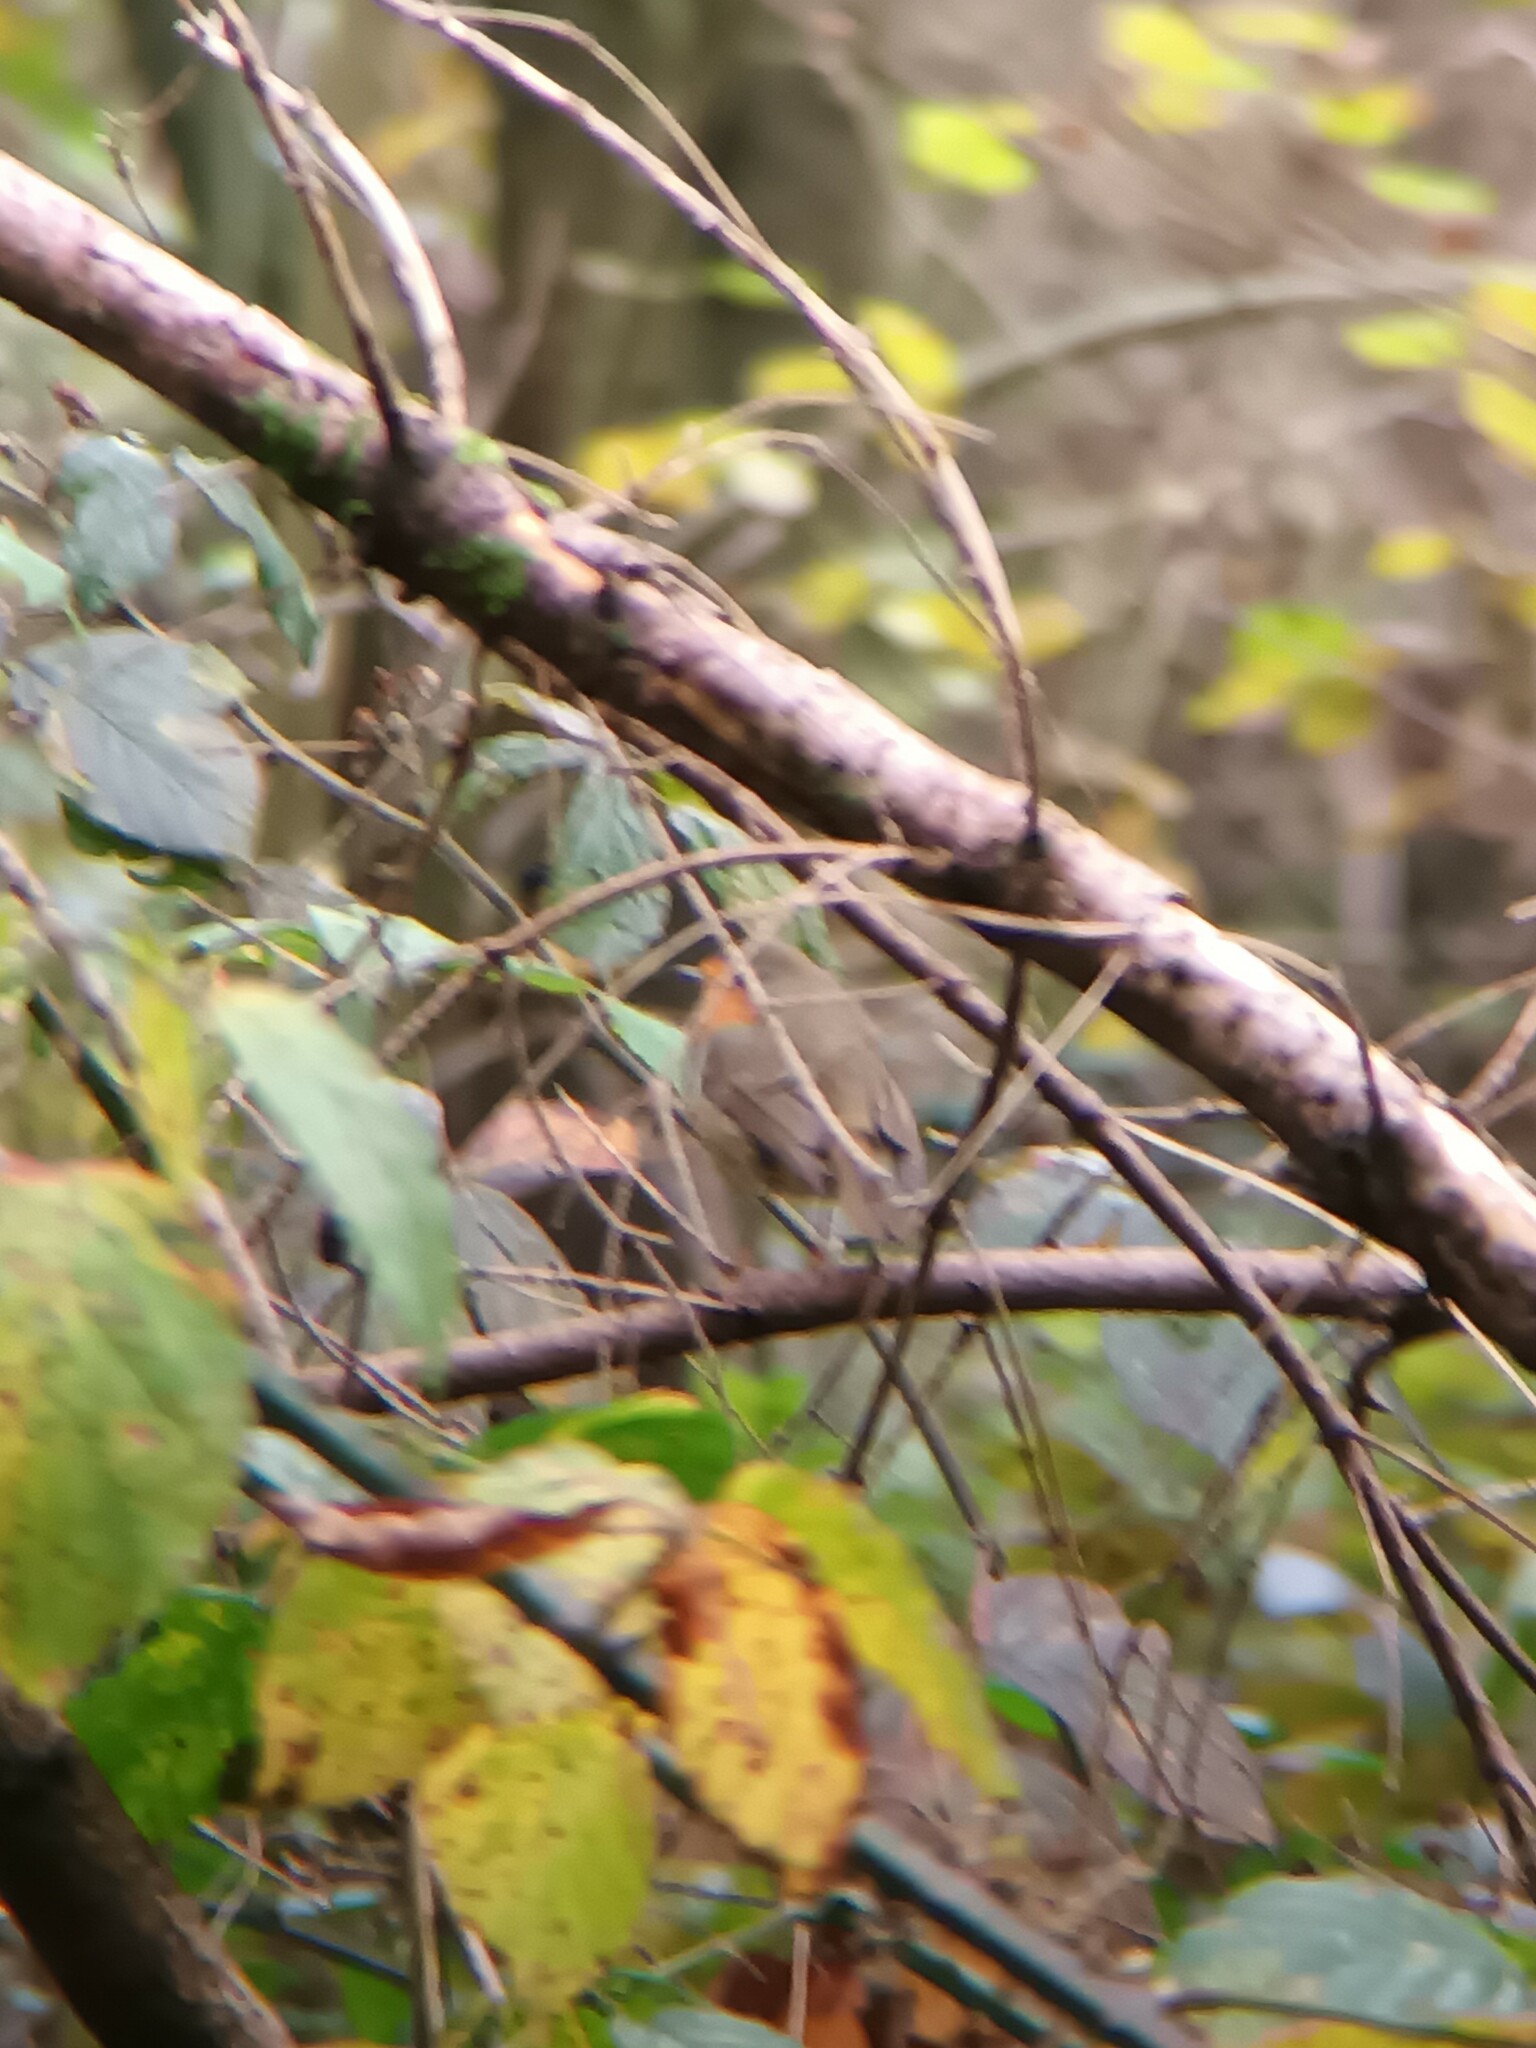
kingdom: Animalia
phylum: Chordata
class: Aves
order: Passeriformes
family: Muscicapidae
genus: Erithacus
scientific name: Erithacus rubecula
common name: European robin
